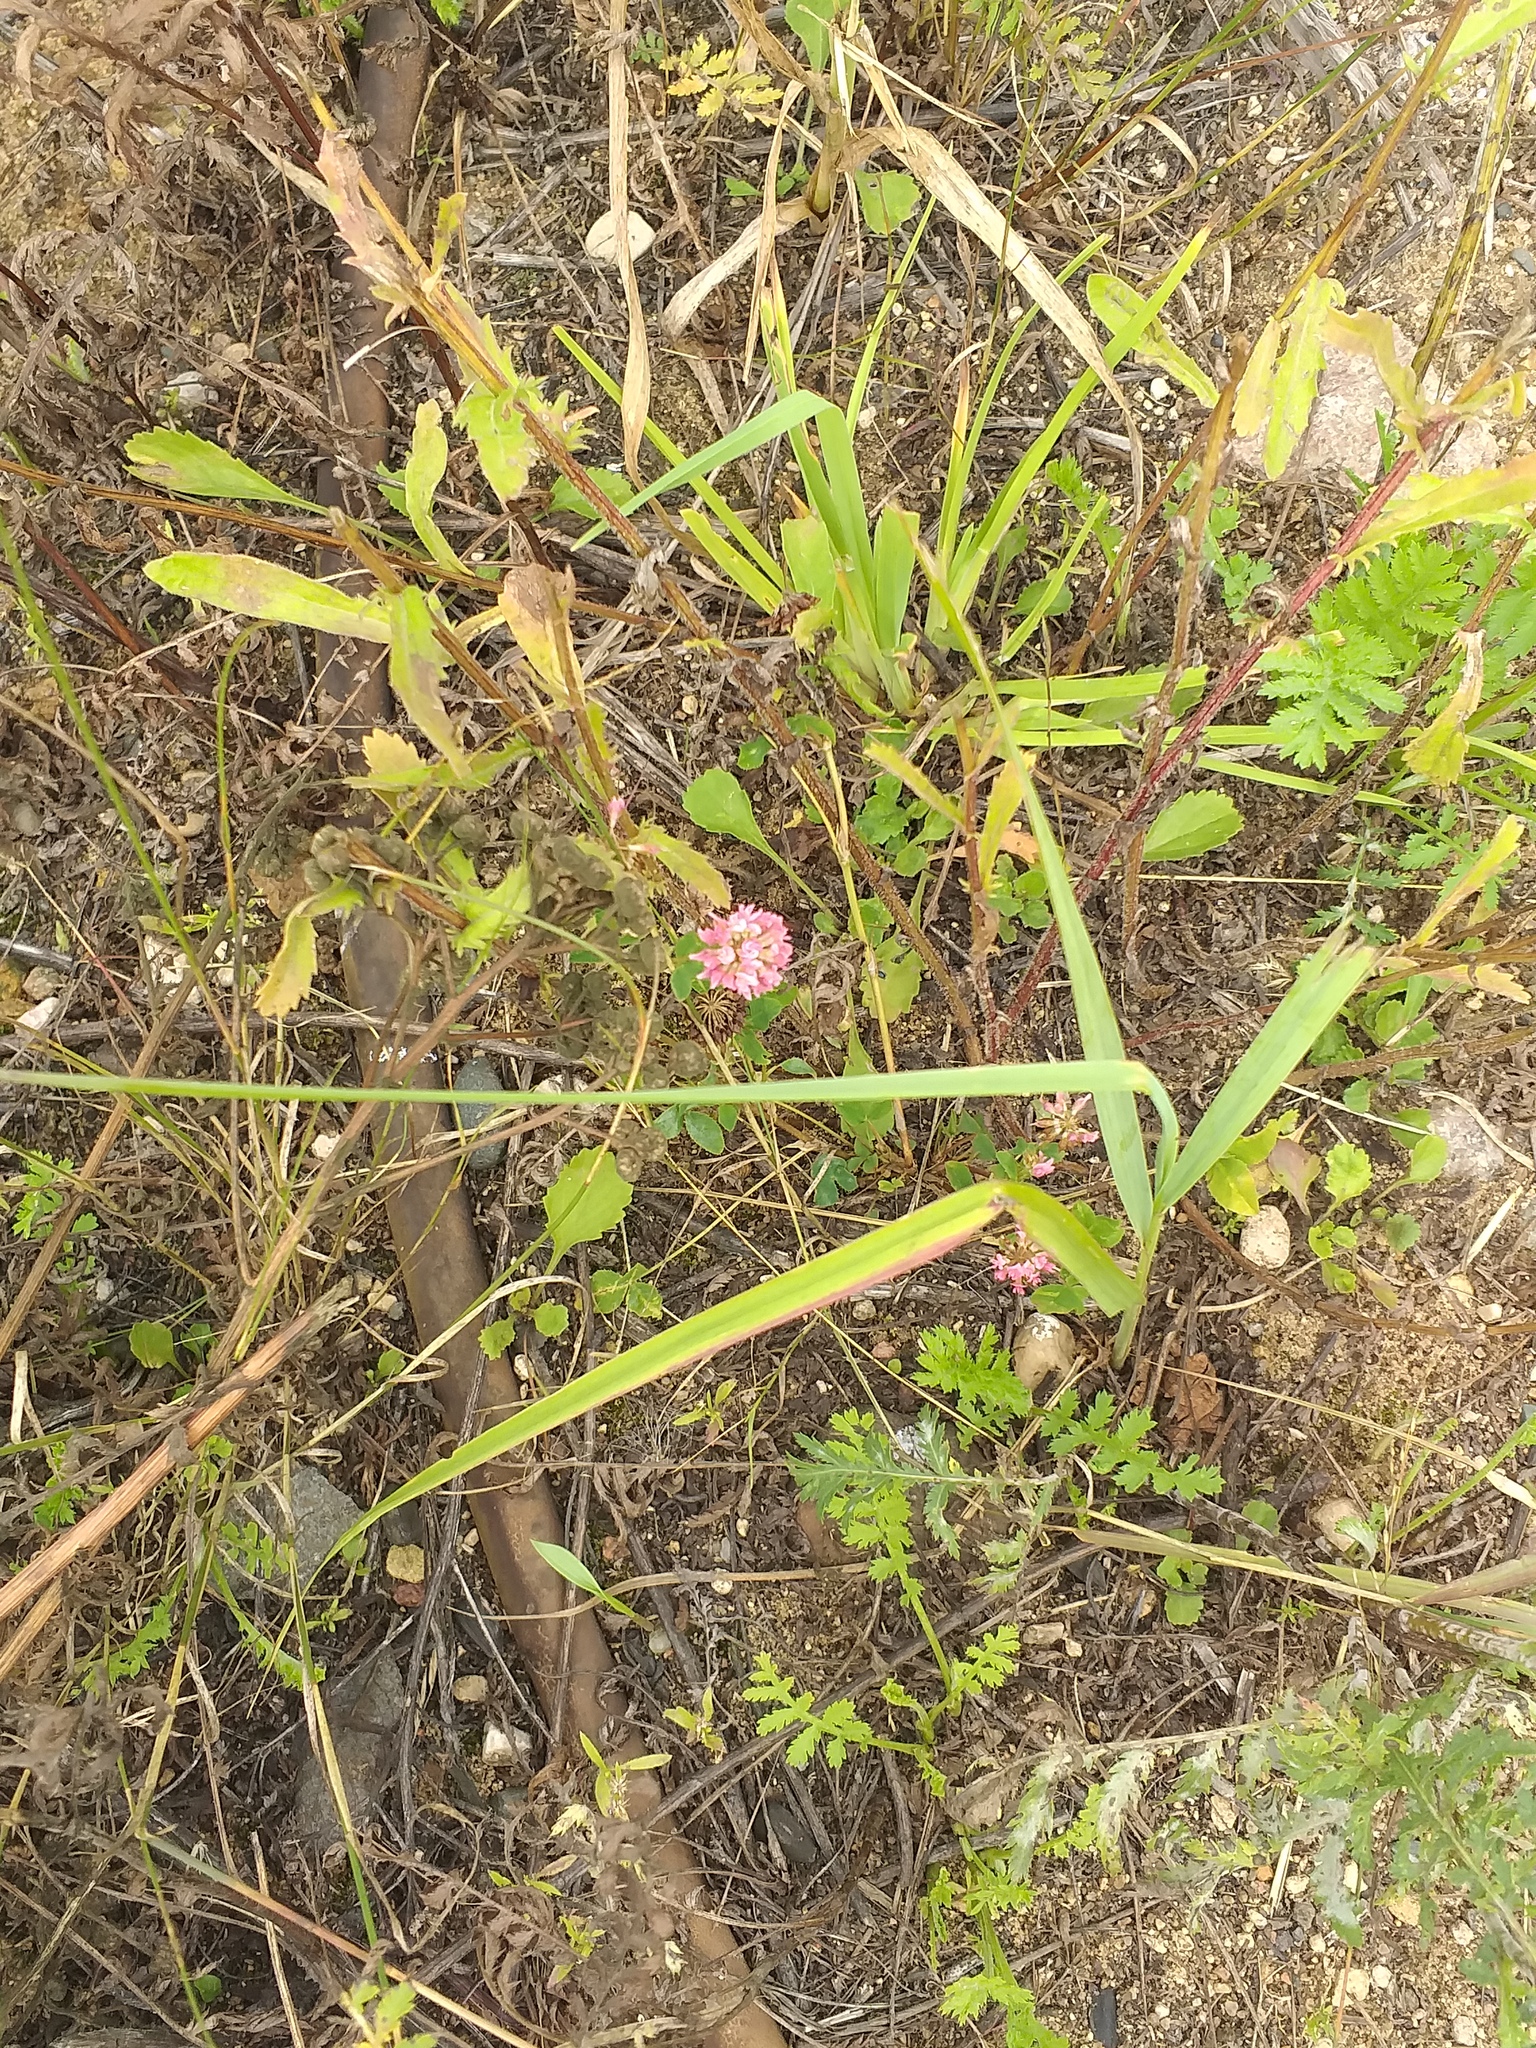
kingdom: Plantae
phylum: Tracheophyta
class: Magnoliopsida
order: Fabales
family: Fabaceae
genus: Trifolium
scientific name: Trifolium hybridum
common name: Alsike clover
